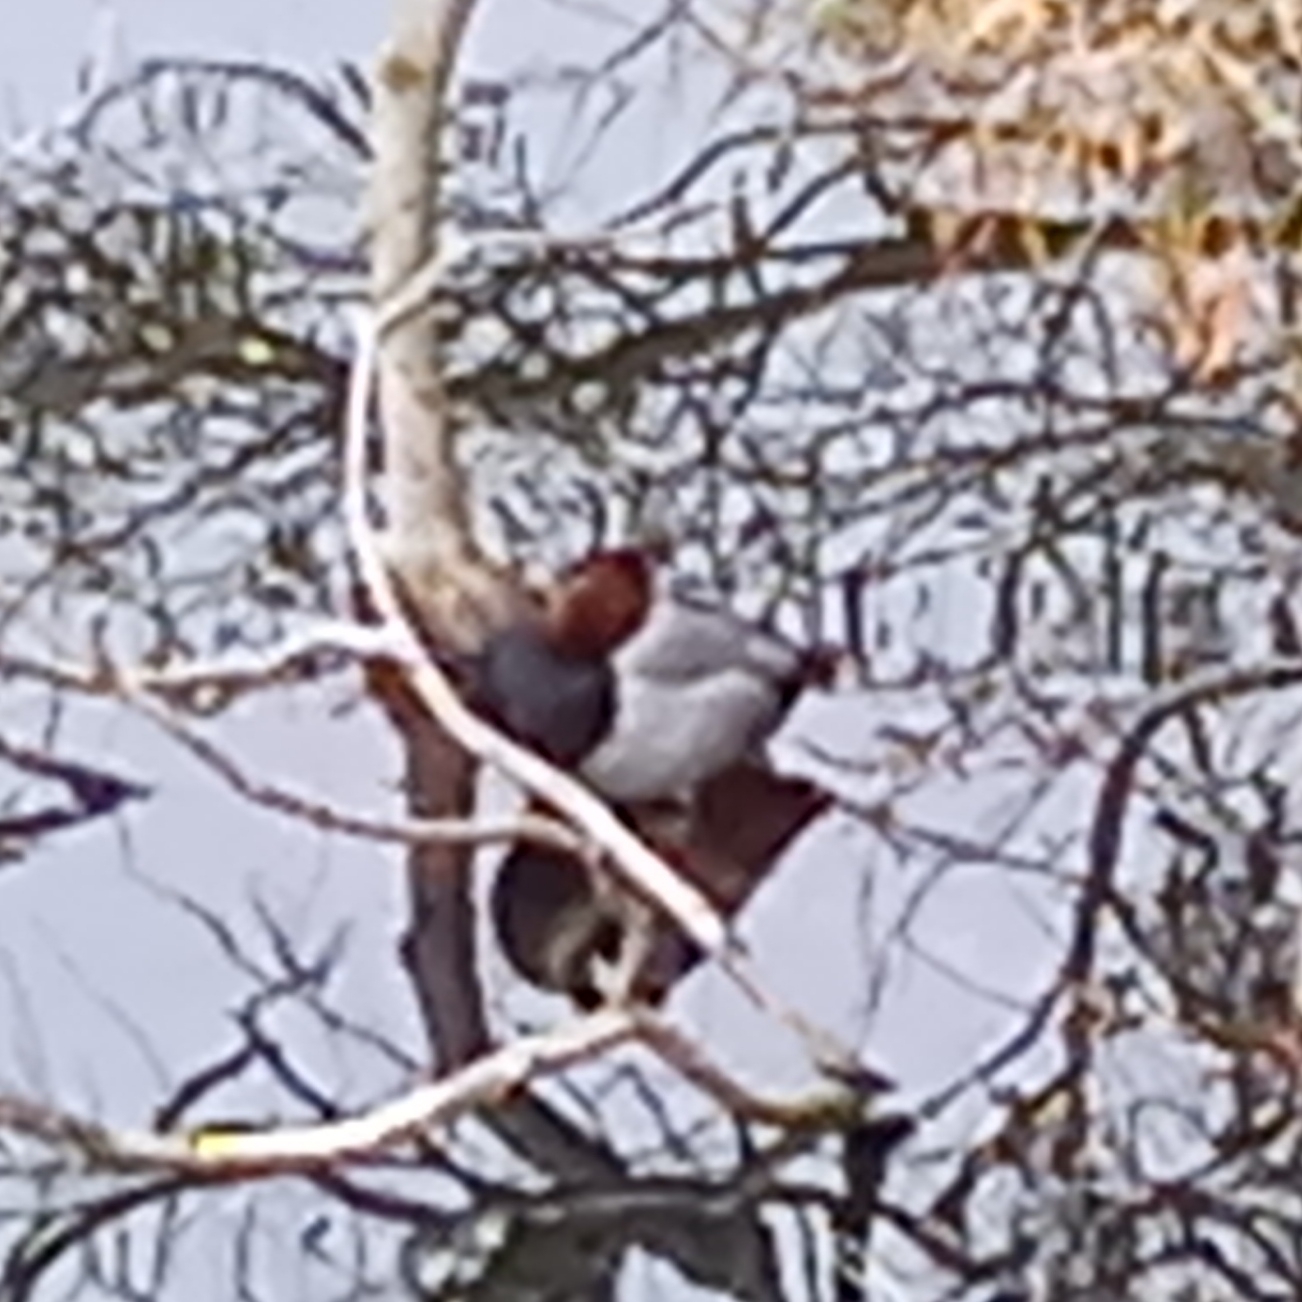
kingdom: Animalia
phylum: Chordata
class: Aves
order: Anseriformes
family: Anatidae
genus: Aythya
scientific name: Aythya ferina
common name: Common pochard
